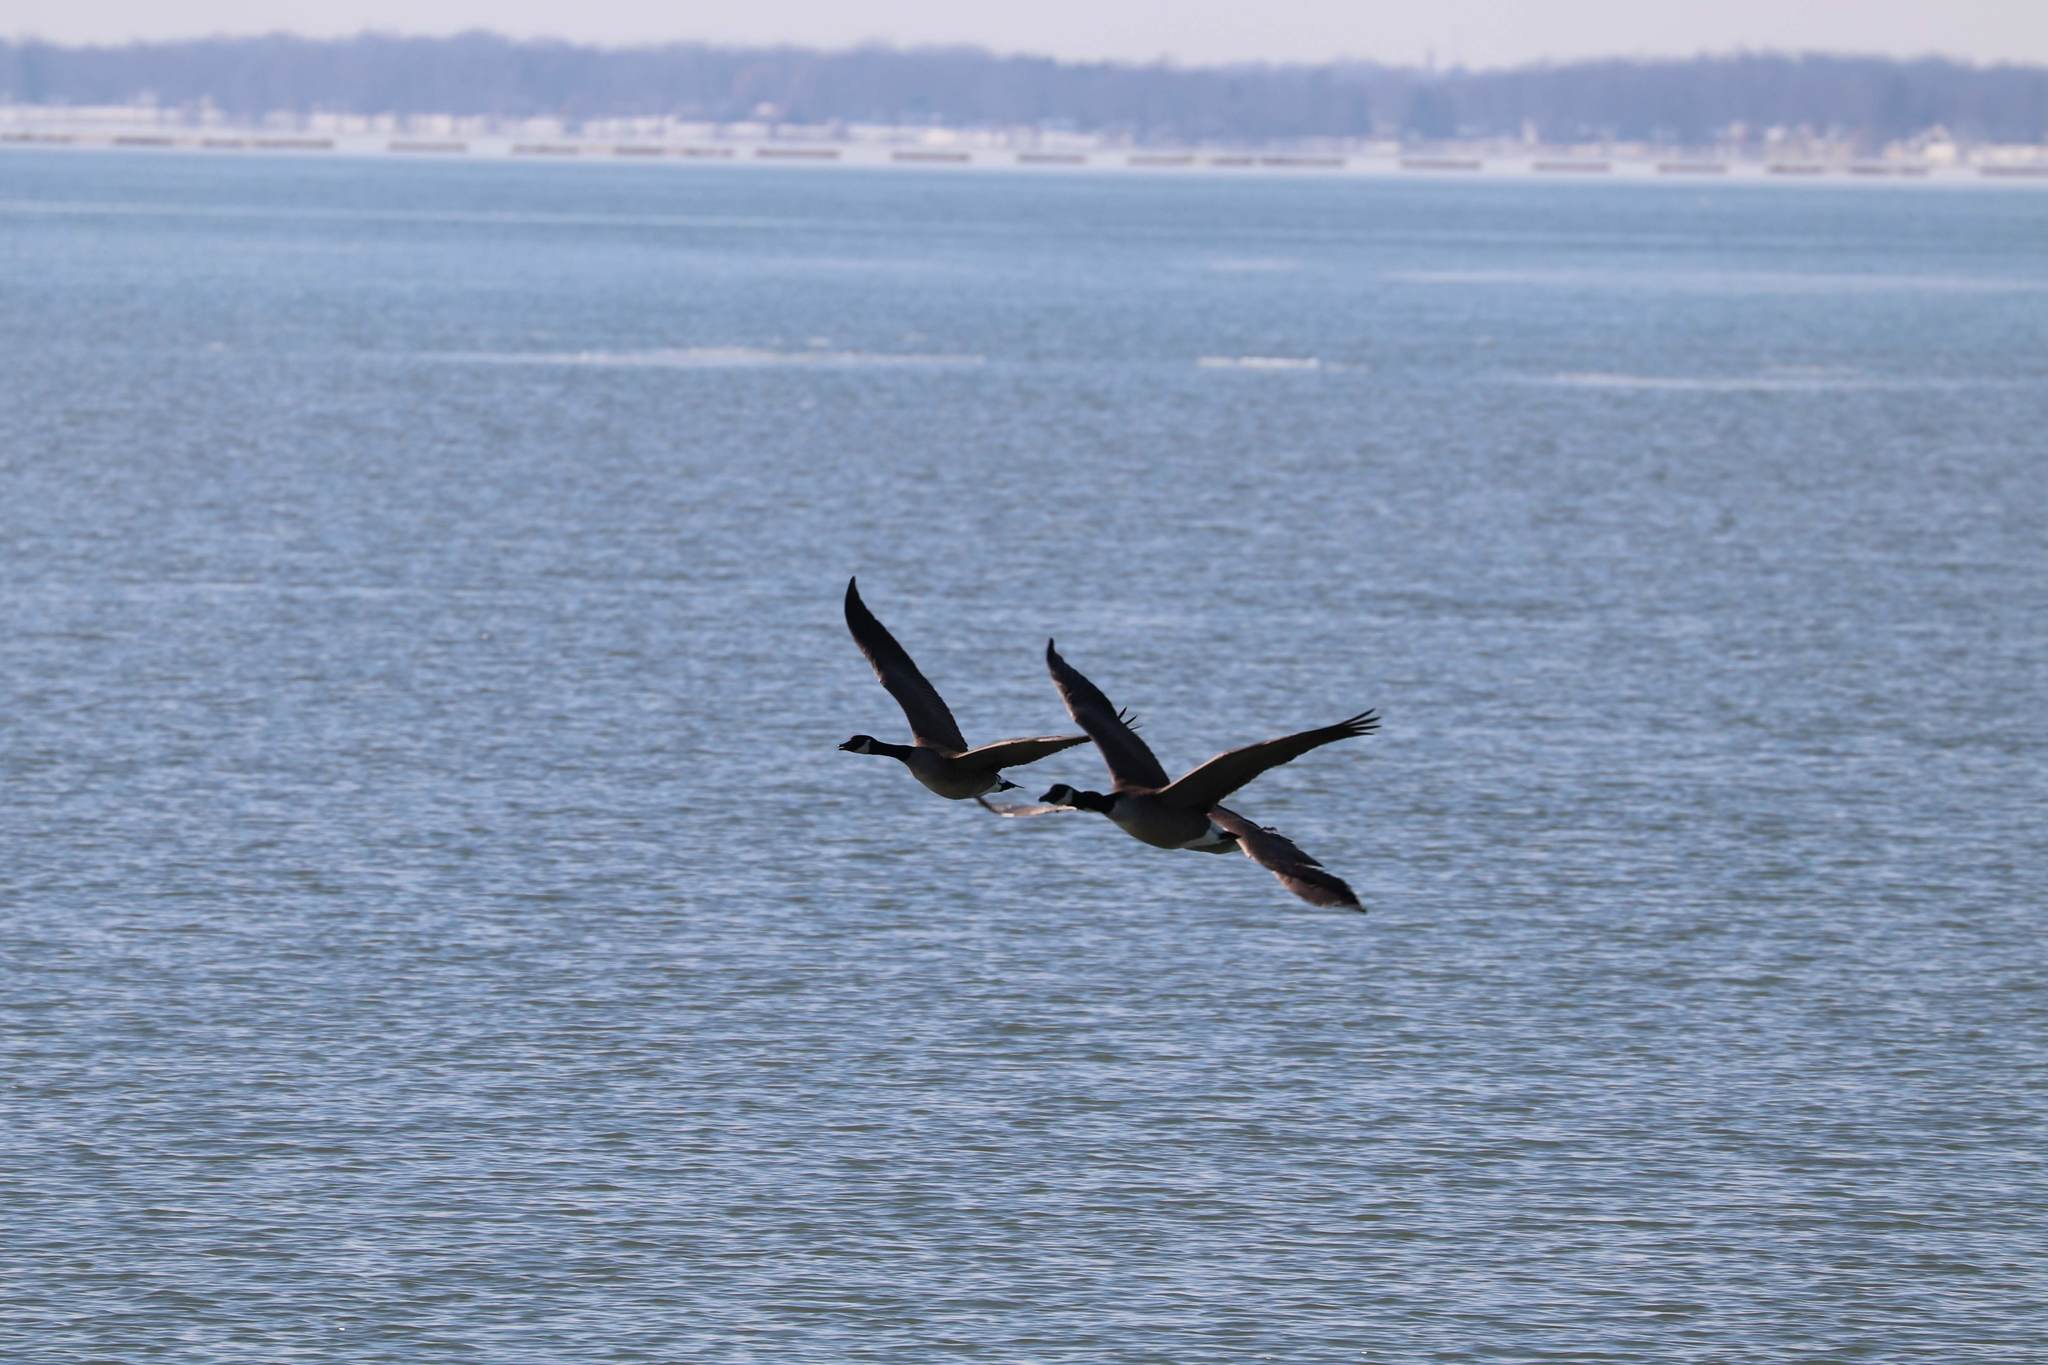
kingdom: Animalia
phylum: Chordata
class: Aves
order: Anseriformes
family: Anatidae
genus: Branta
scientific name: Branta canadensis
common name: Canada goose
